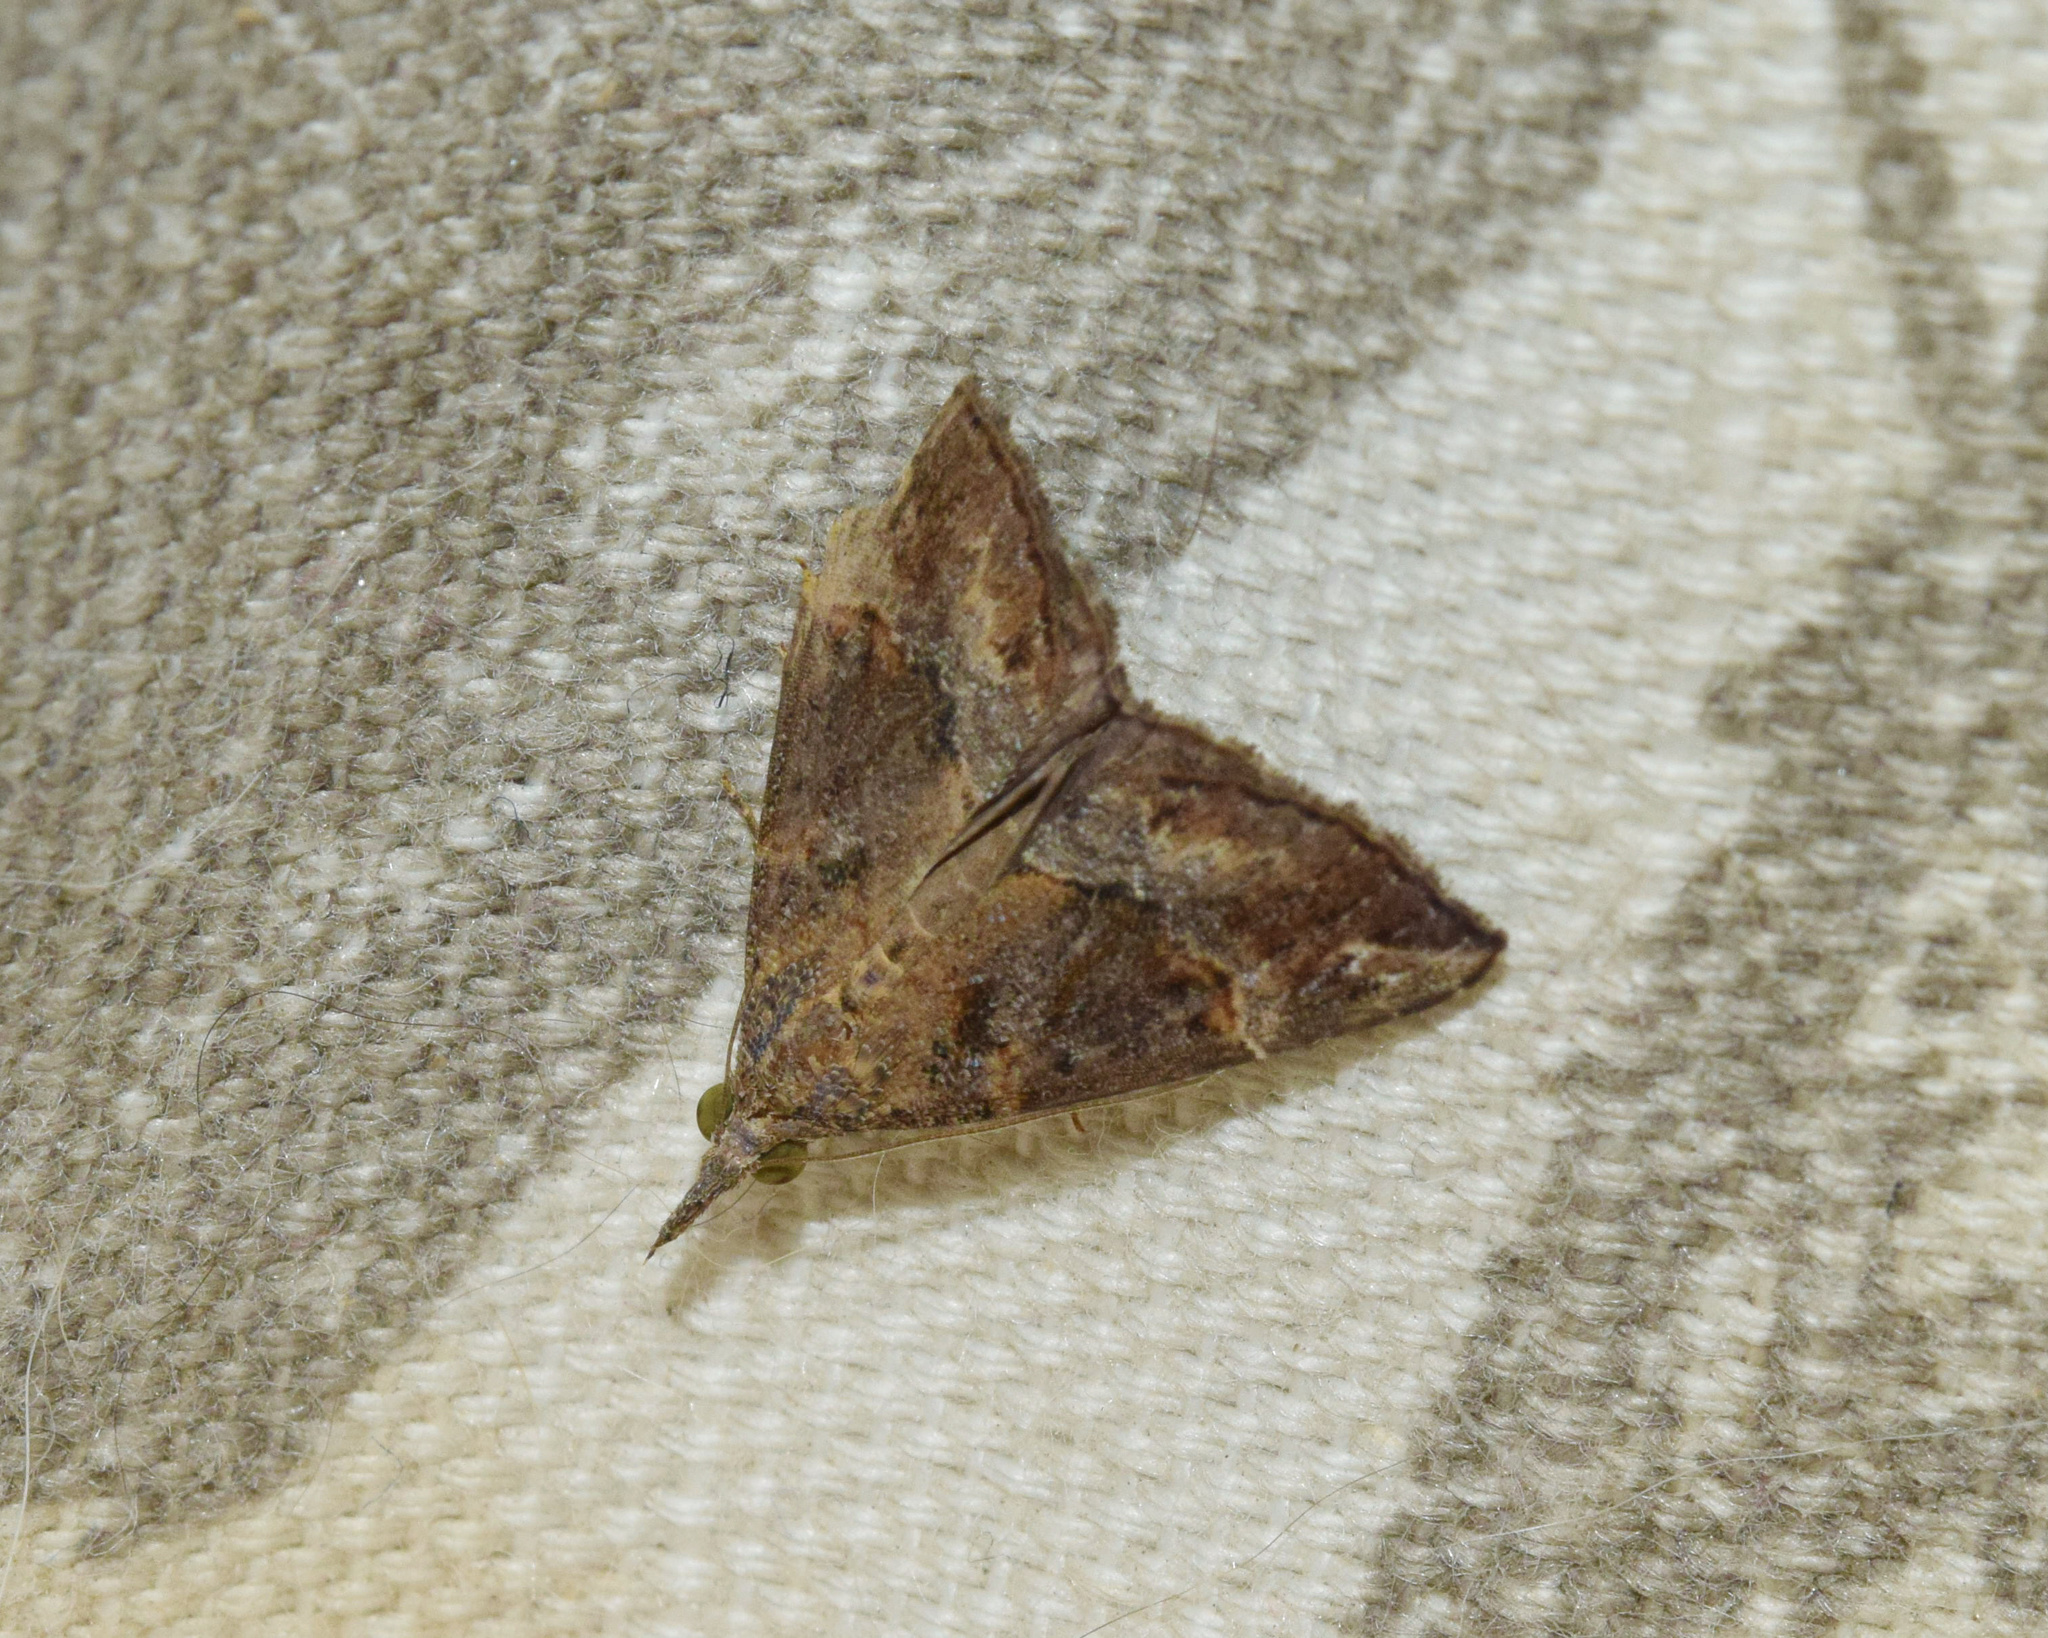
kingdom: Animalia
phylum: Arthropoda
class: Insecta
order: Lepidoptera
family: Erebidae
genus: Hypena
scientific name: Hypena saltalis
